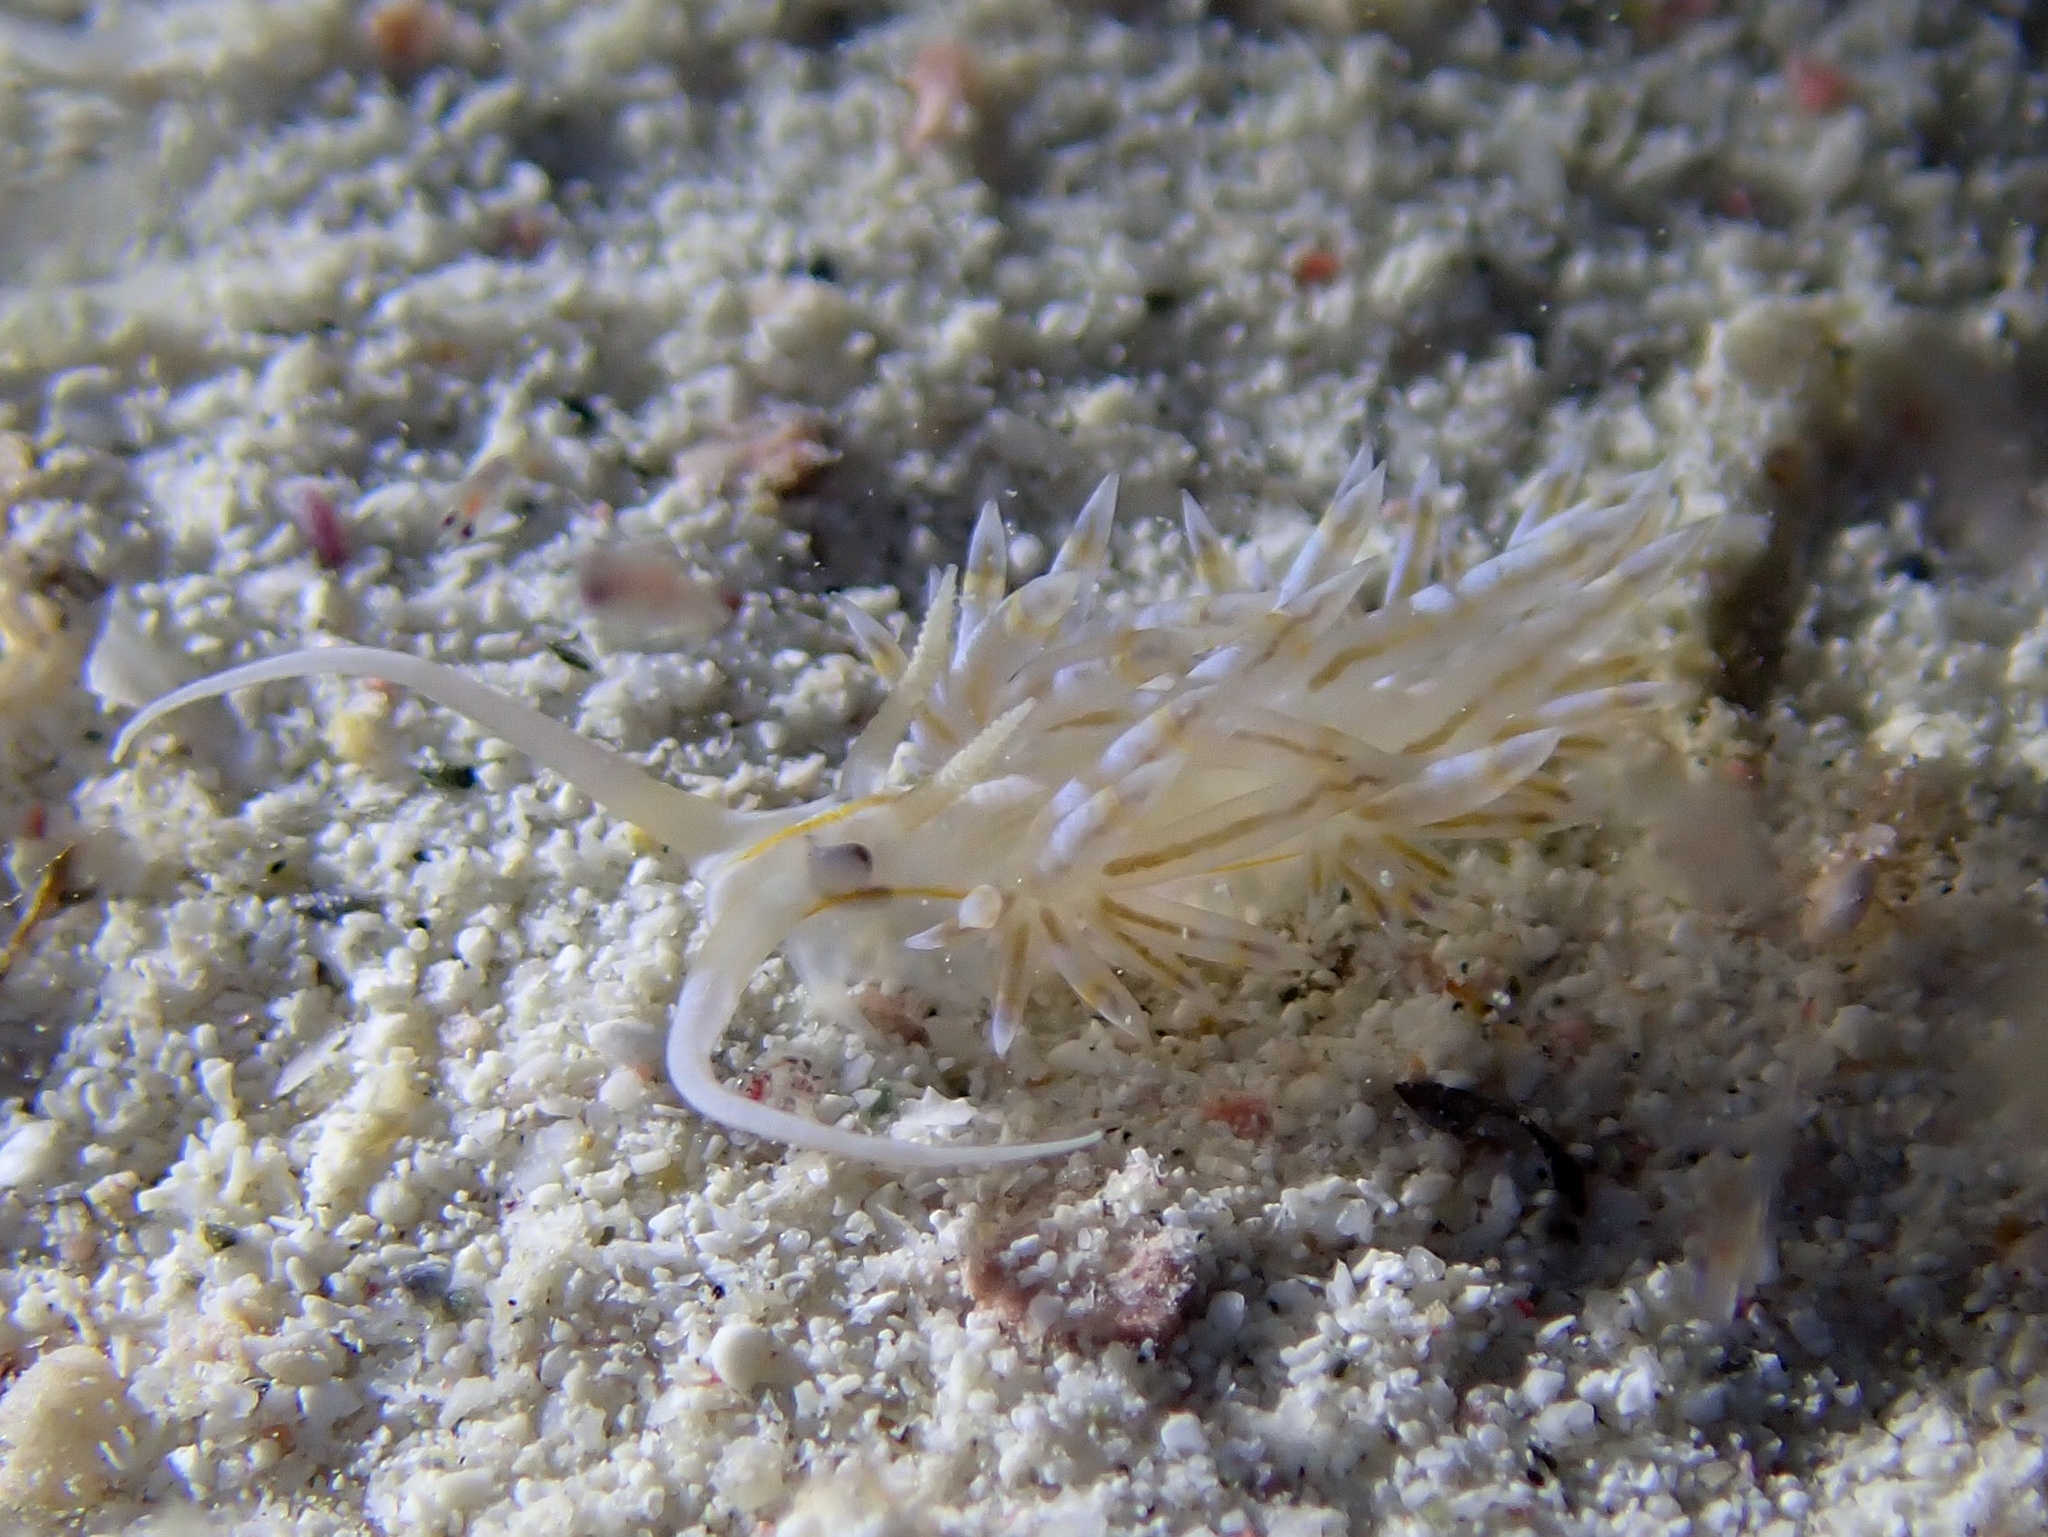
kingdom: Animalia
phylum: Mollusca
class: Gastropoda
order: Nudibranchia
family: Myrrhinidae
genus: Dondice
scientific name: Dondice occidentalis
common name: Fringe-back nudibranch
